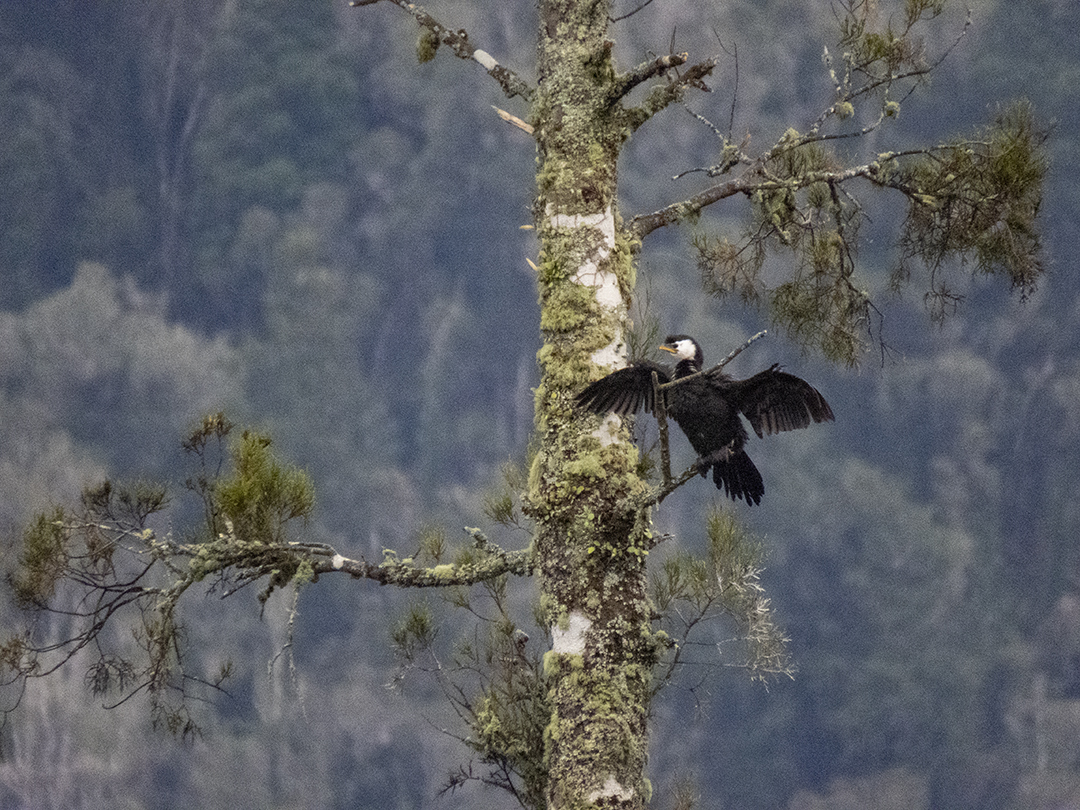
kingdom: Animalia
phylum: Chordata
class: Aves
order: Suliformes
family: Phalacrocoracidae
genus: Microcarbo
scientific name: Microcarbo melanoleucos
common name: Little pied cormorant
